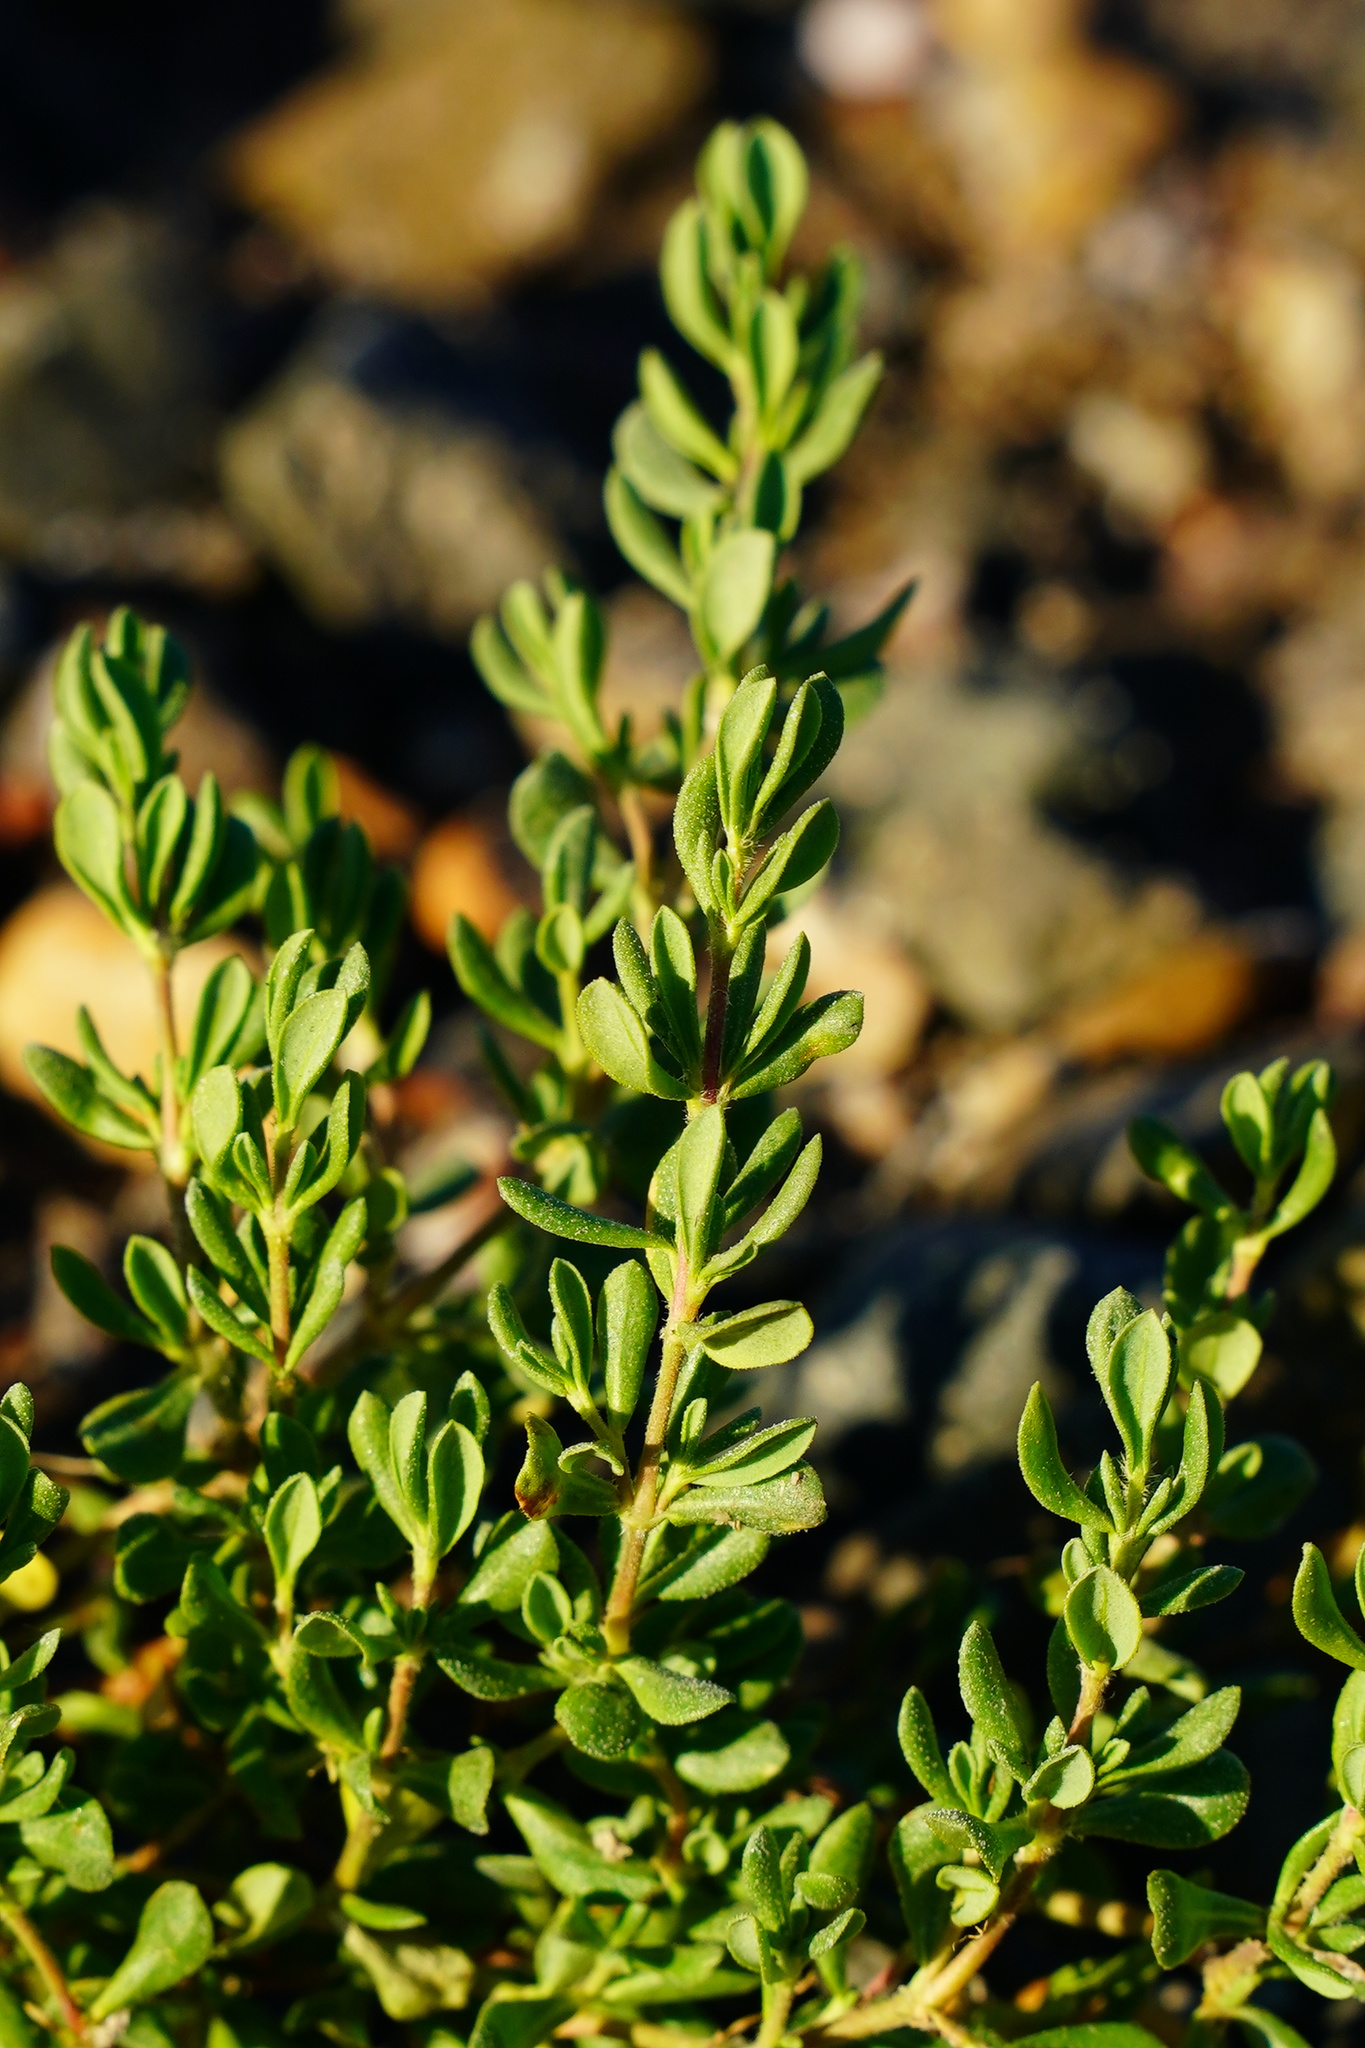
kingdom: Plantae
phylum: Tracheophyta
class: Magnoliopsida
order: Caryophyllales
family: Frankeniaceae
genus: Frankenia
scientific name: Frankenia salina
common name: Alkali seaheath
